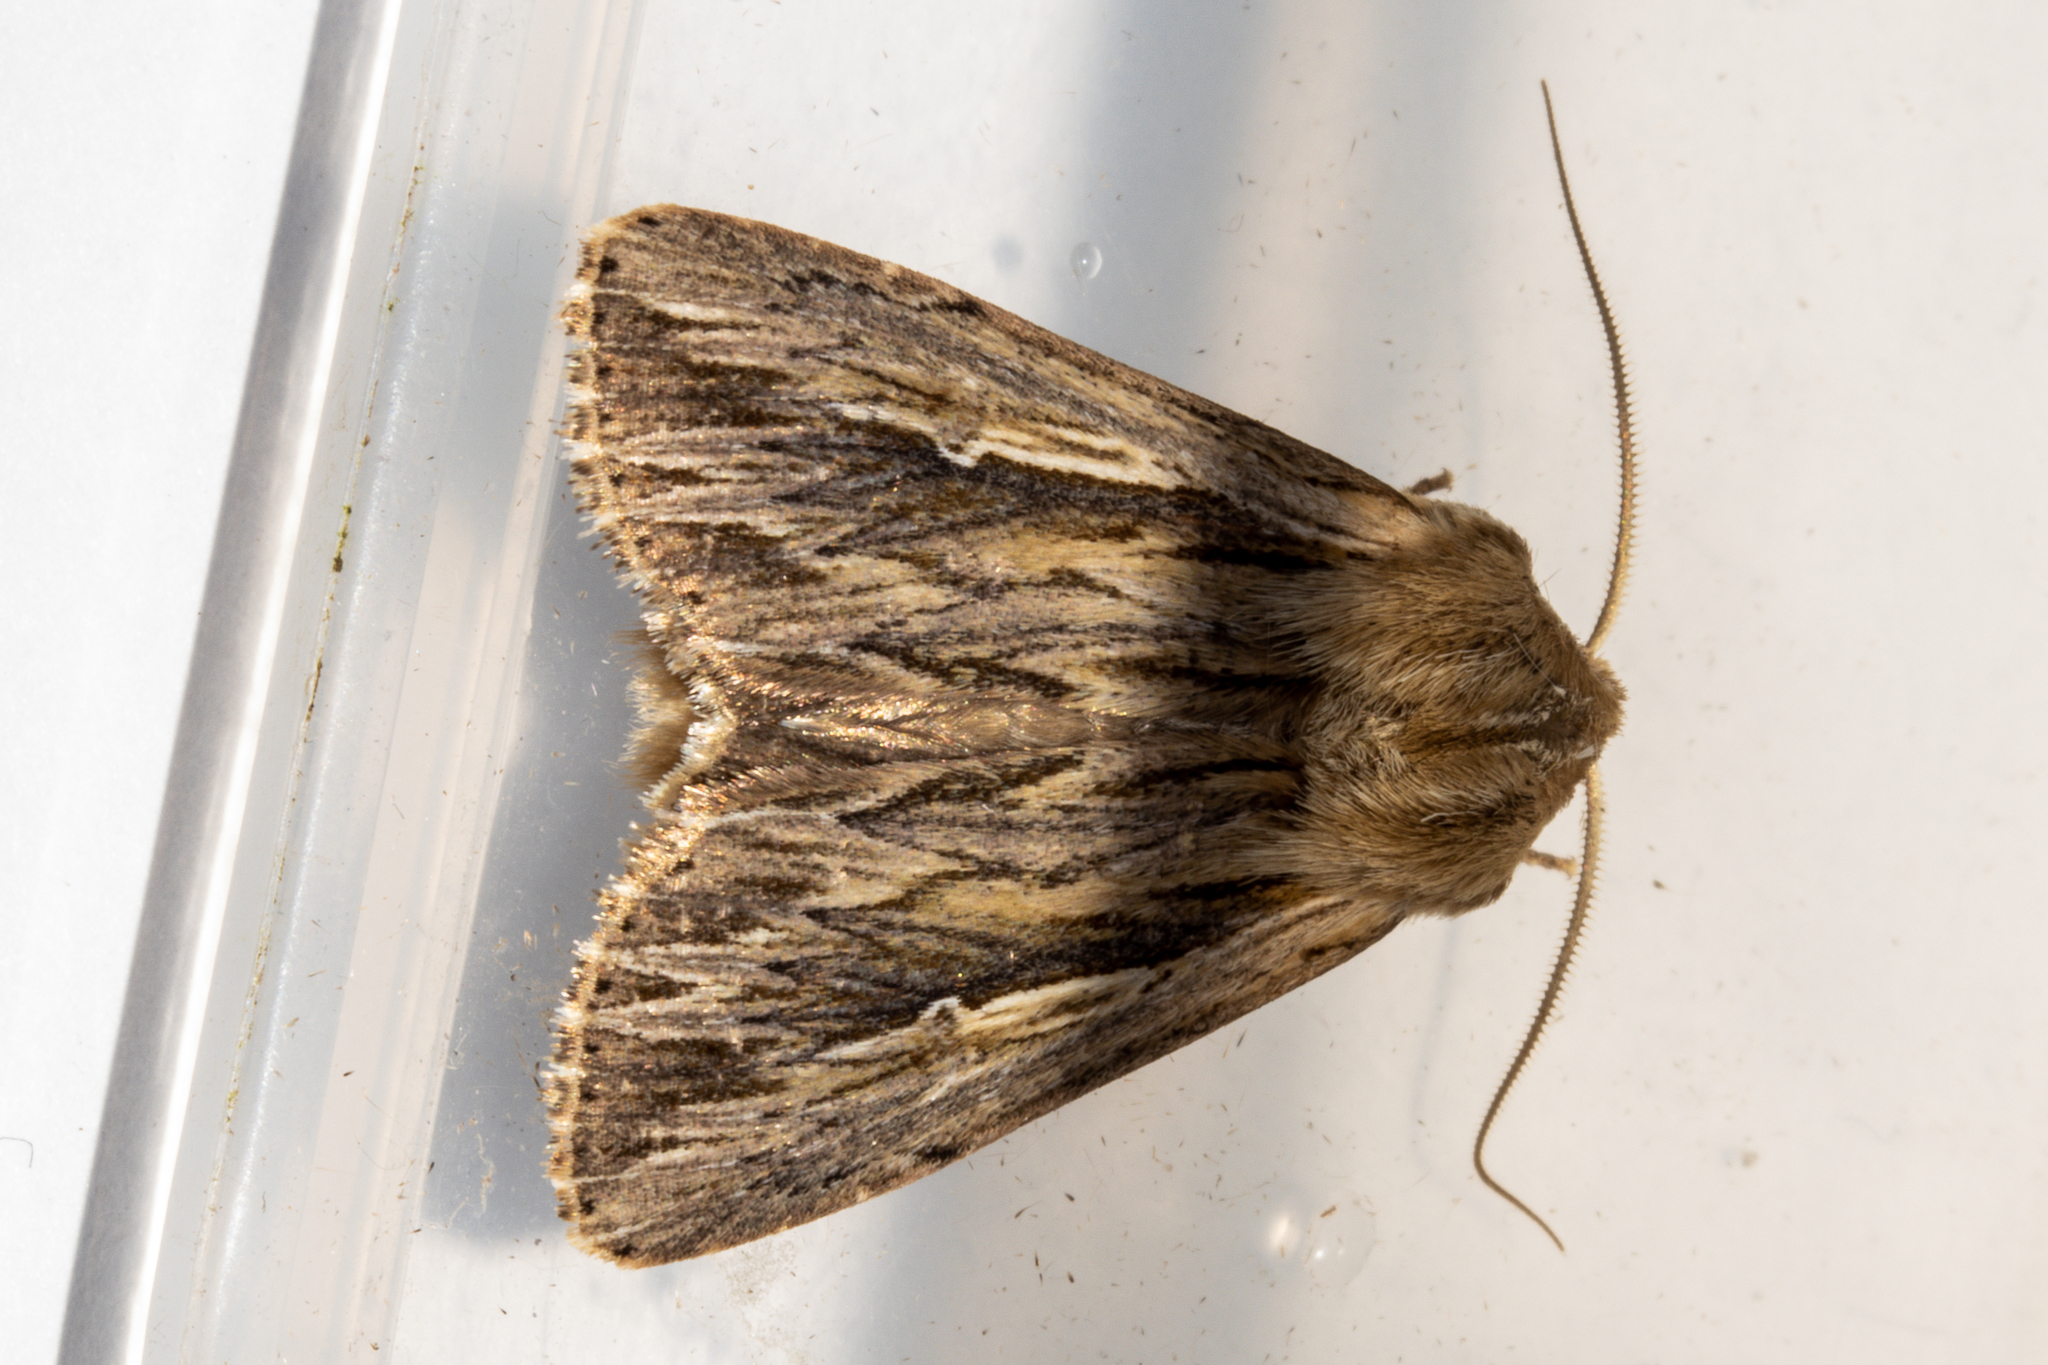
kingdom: Animalia
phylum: Arthropoda
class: Insecta
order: Lepidoptera
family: Noctuidae
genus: Persectania
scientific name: Persectania aversa
